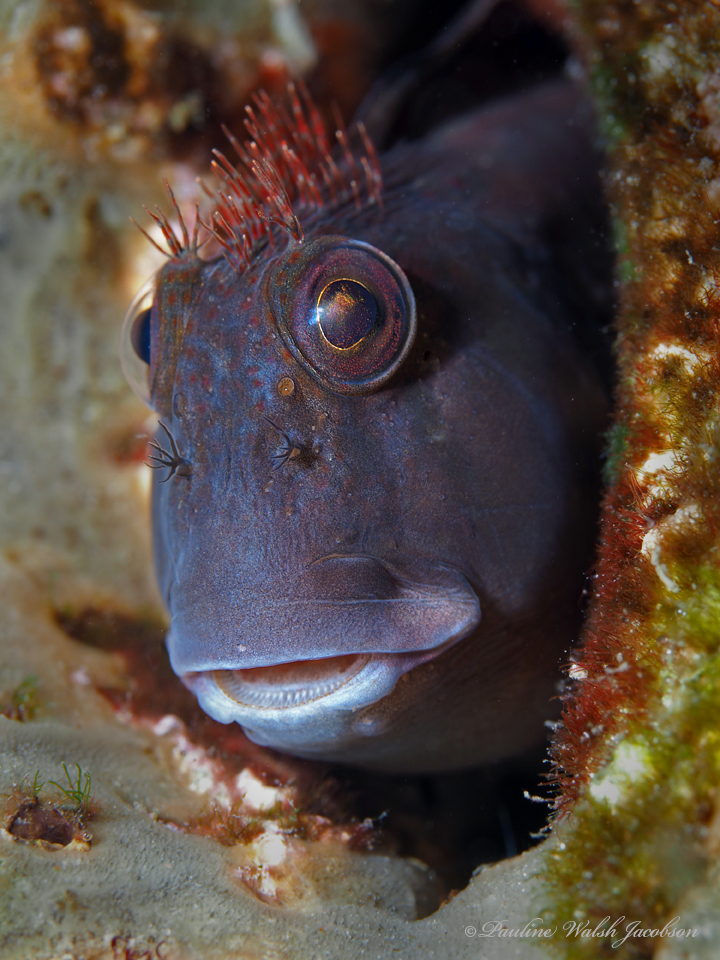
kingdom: Animalia
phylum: Chordata
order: Perciformes
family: Blenniidae
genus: Scartella
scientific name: Scartella cristata
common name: Molly miller
